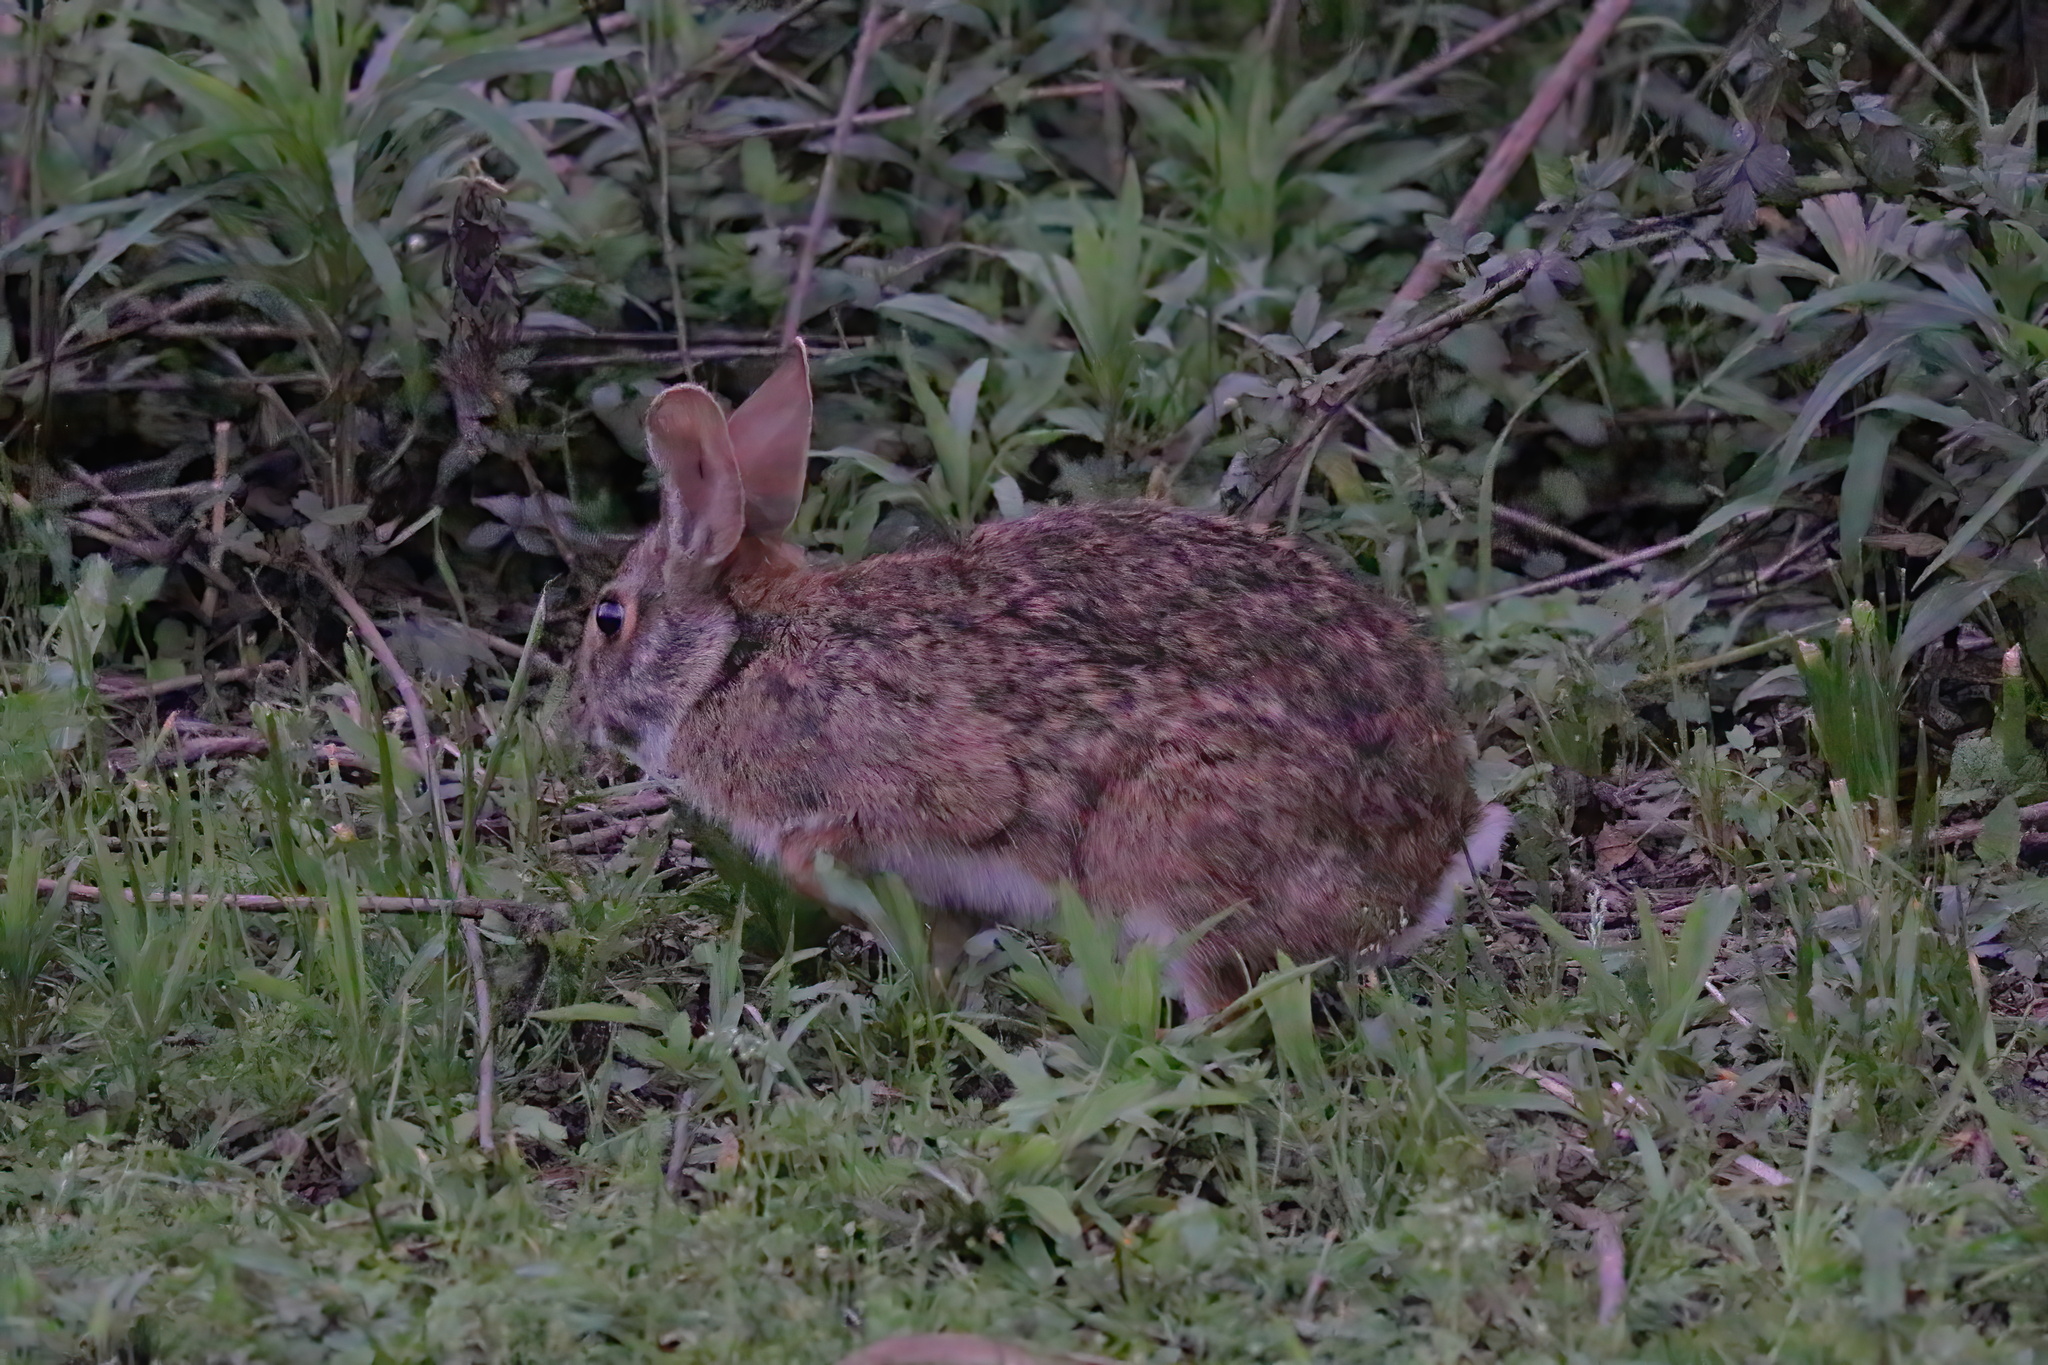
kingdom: Animalia
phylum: Chordata
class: Mammalia
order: Lagomorpha
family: Leporidae
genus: Sylvilagus
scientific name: Sylvilagus floridanus
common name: Eastern cottontail
